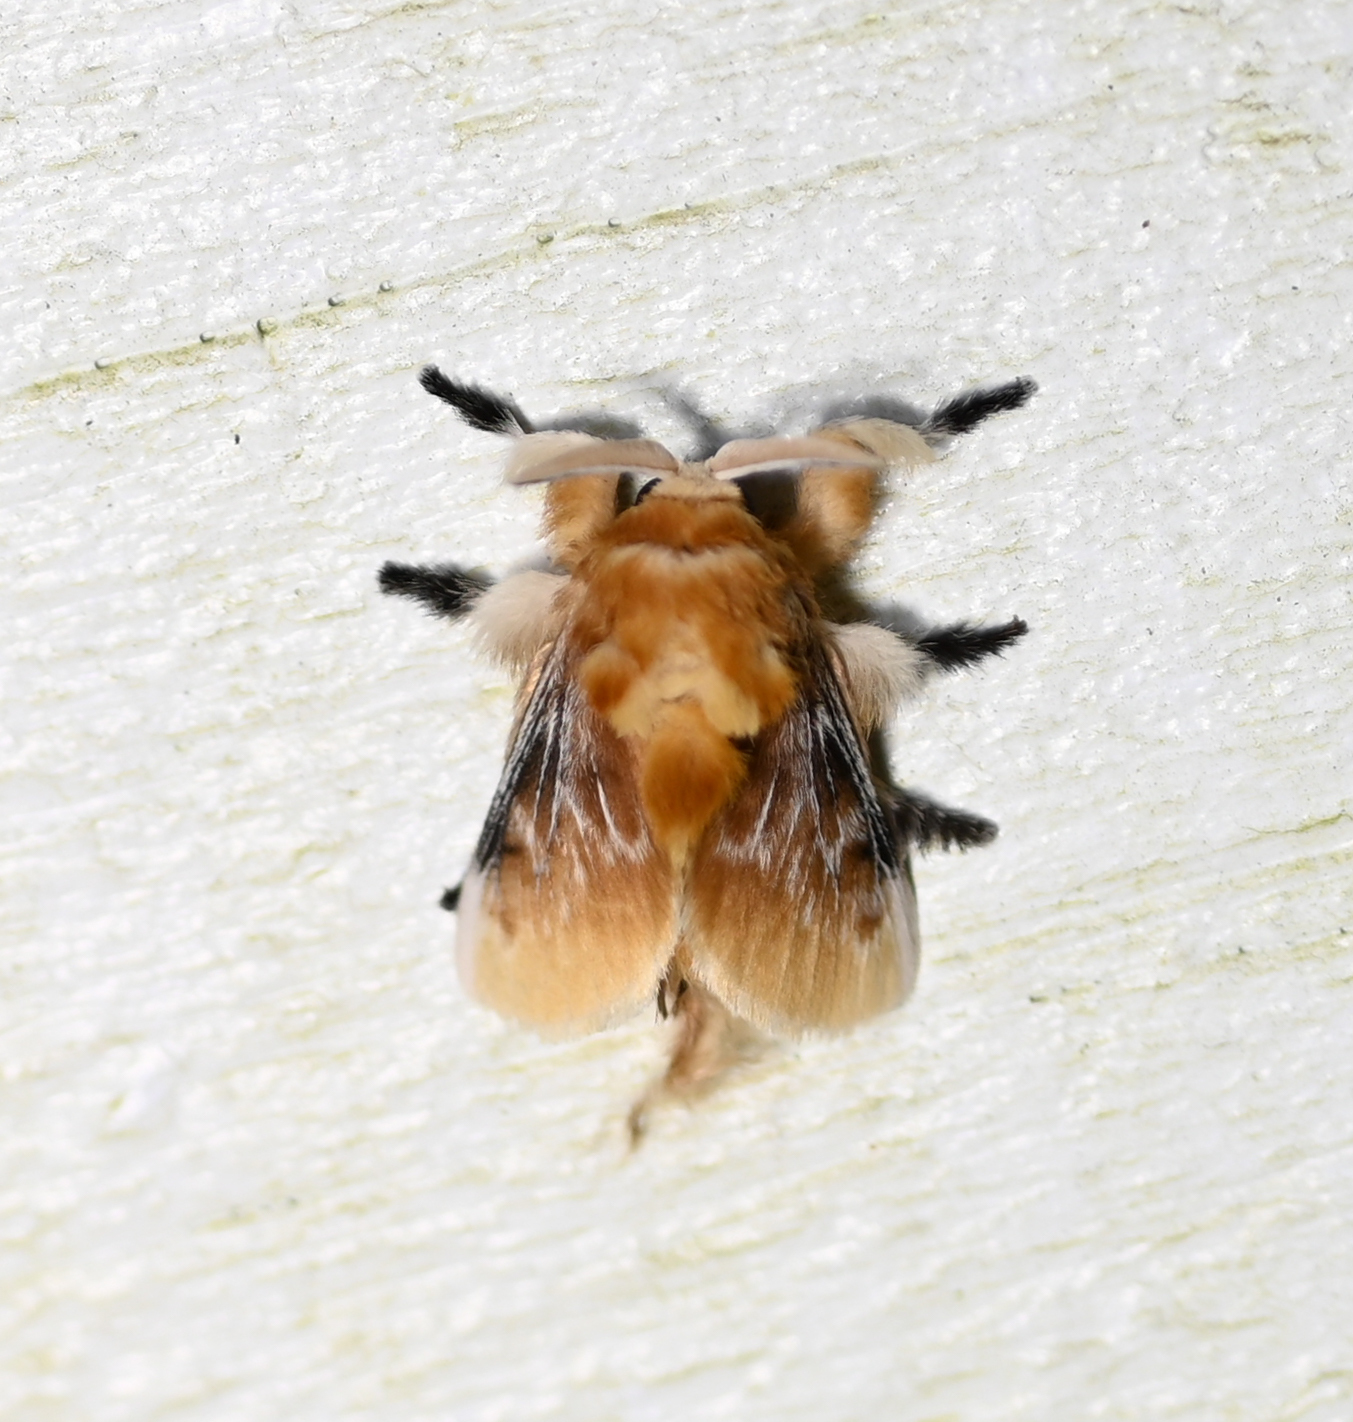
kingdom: Animalia
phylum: Arthropoda
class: Insecta
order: Lepidoptera
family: Megalopygidae
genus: Megalopyge
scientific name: Megalopyge opercularis
